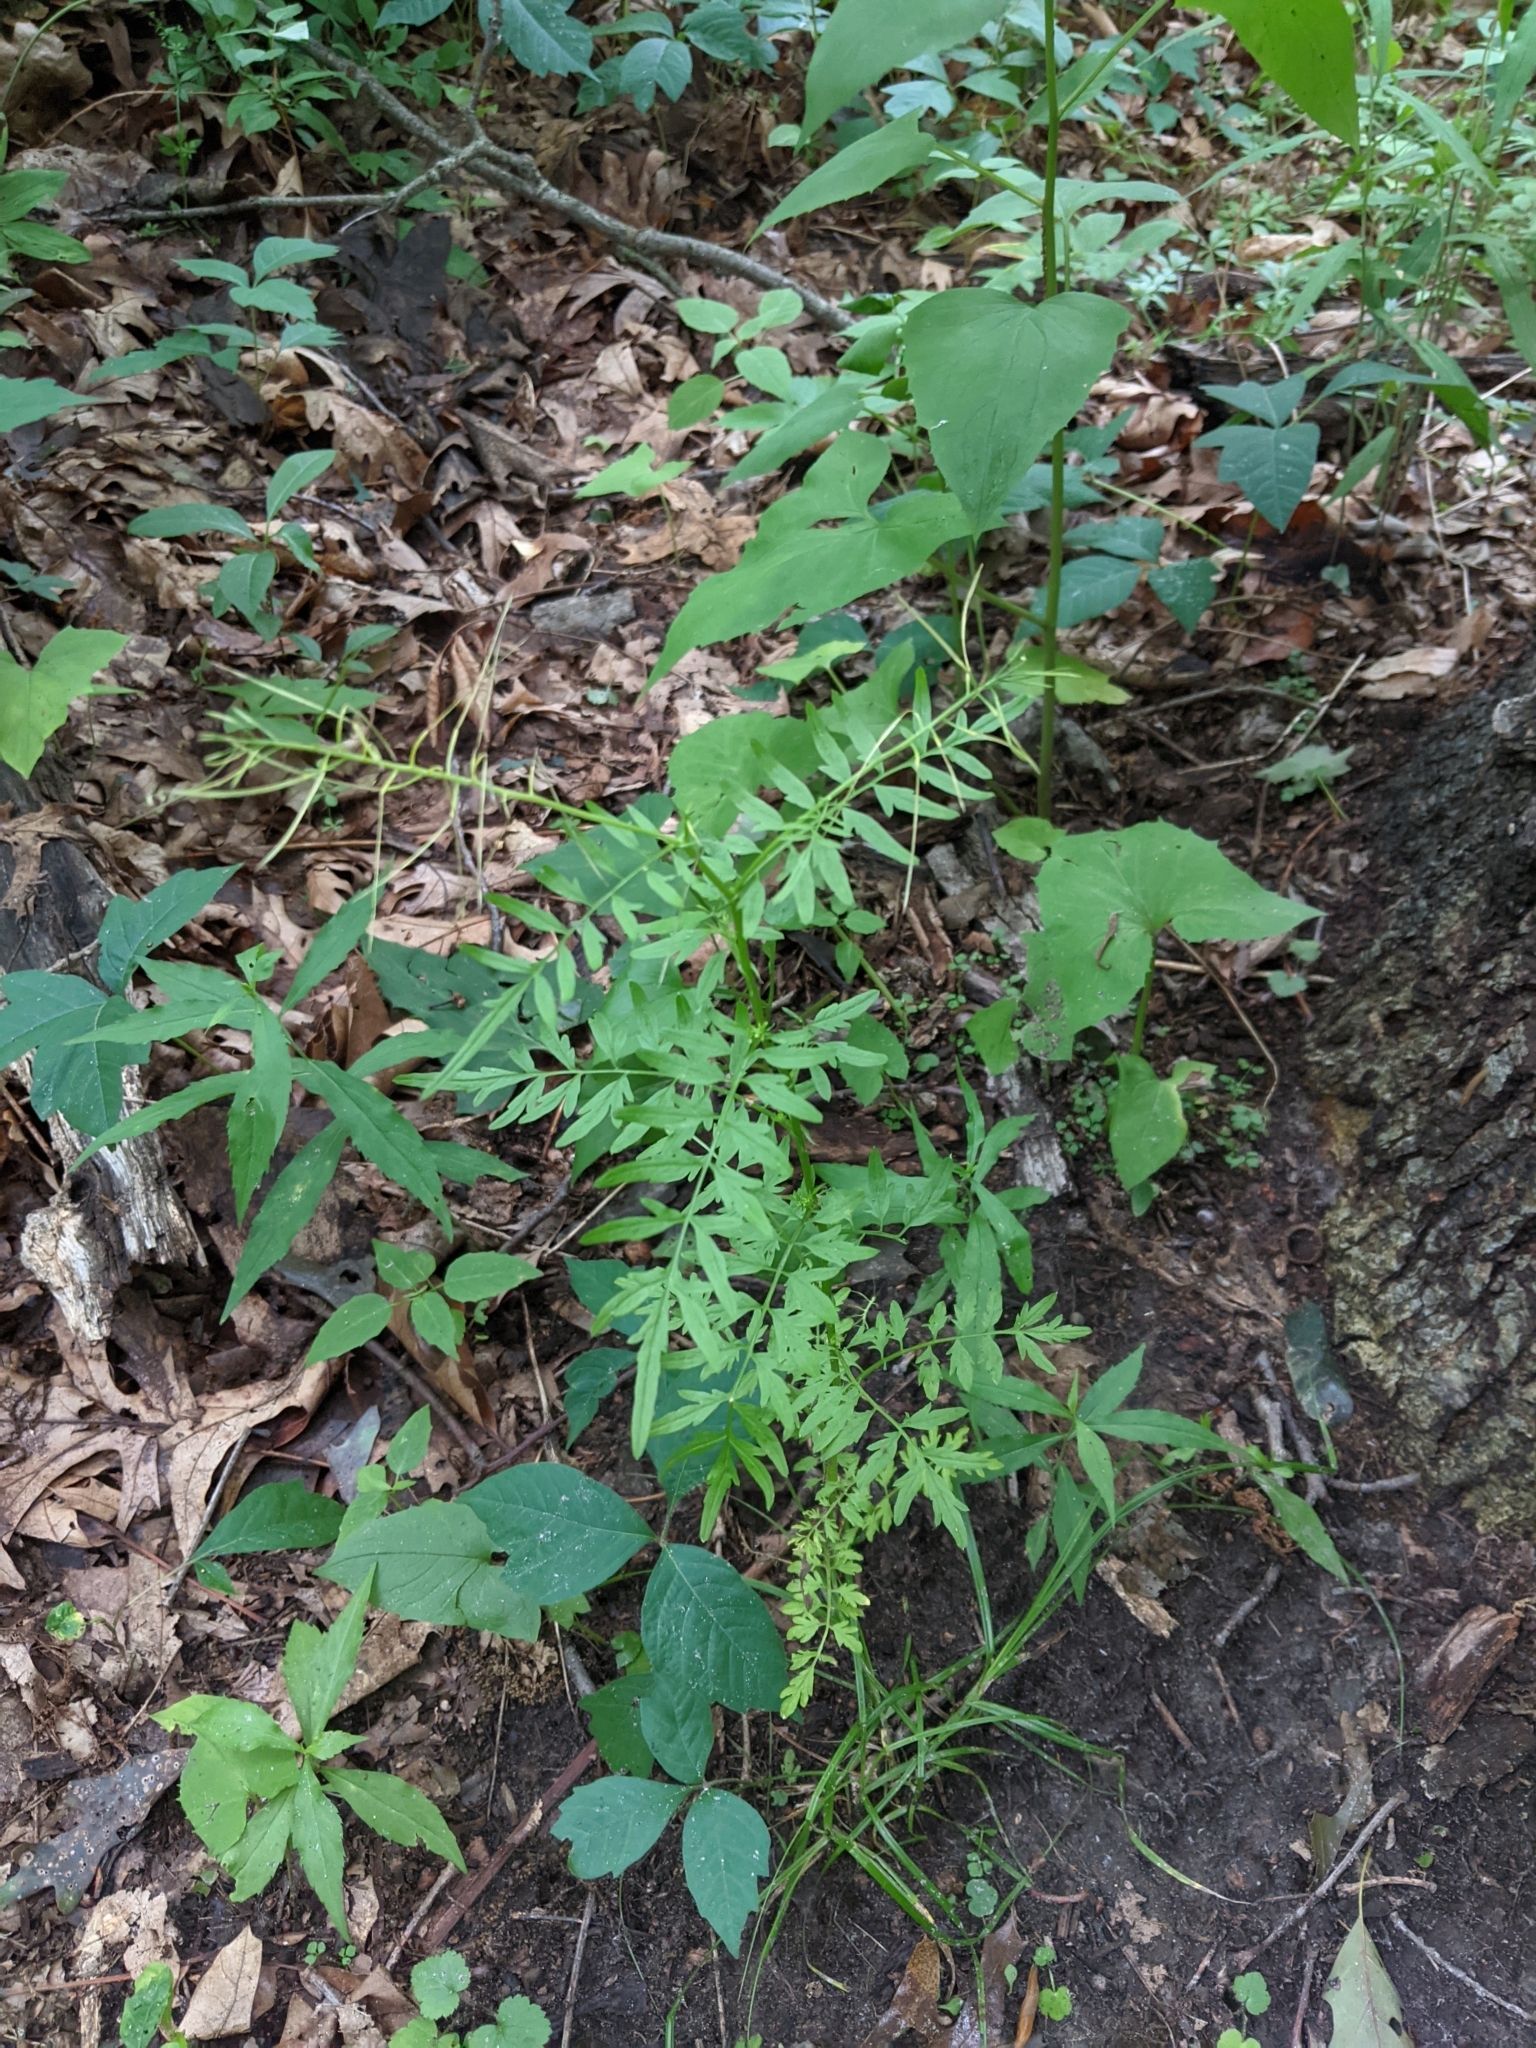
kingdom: Plantae
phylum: Tracheophyta
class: Magnoliopsida
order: Brassicales
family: Brassicaceae
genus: Cardamine
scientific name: Cardamine impatiens
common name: Narrow-leaved bitter-cress
